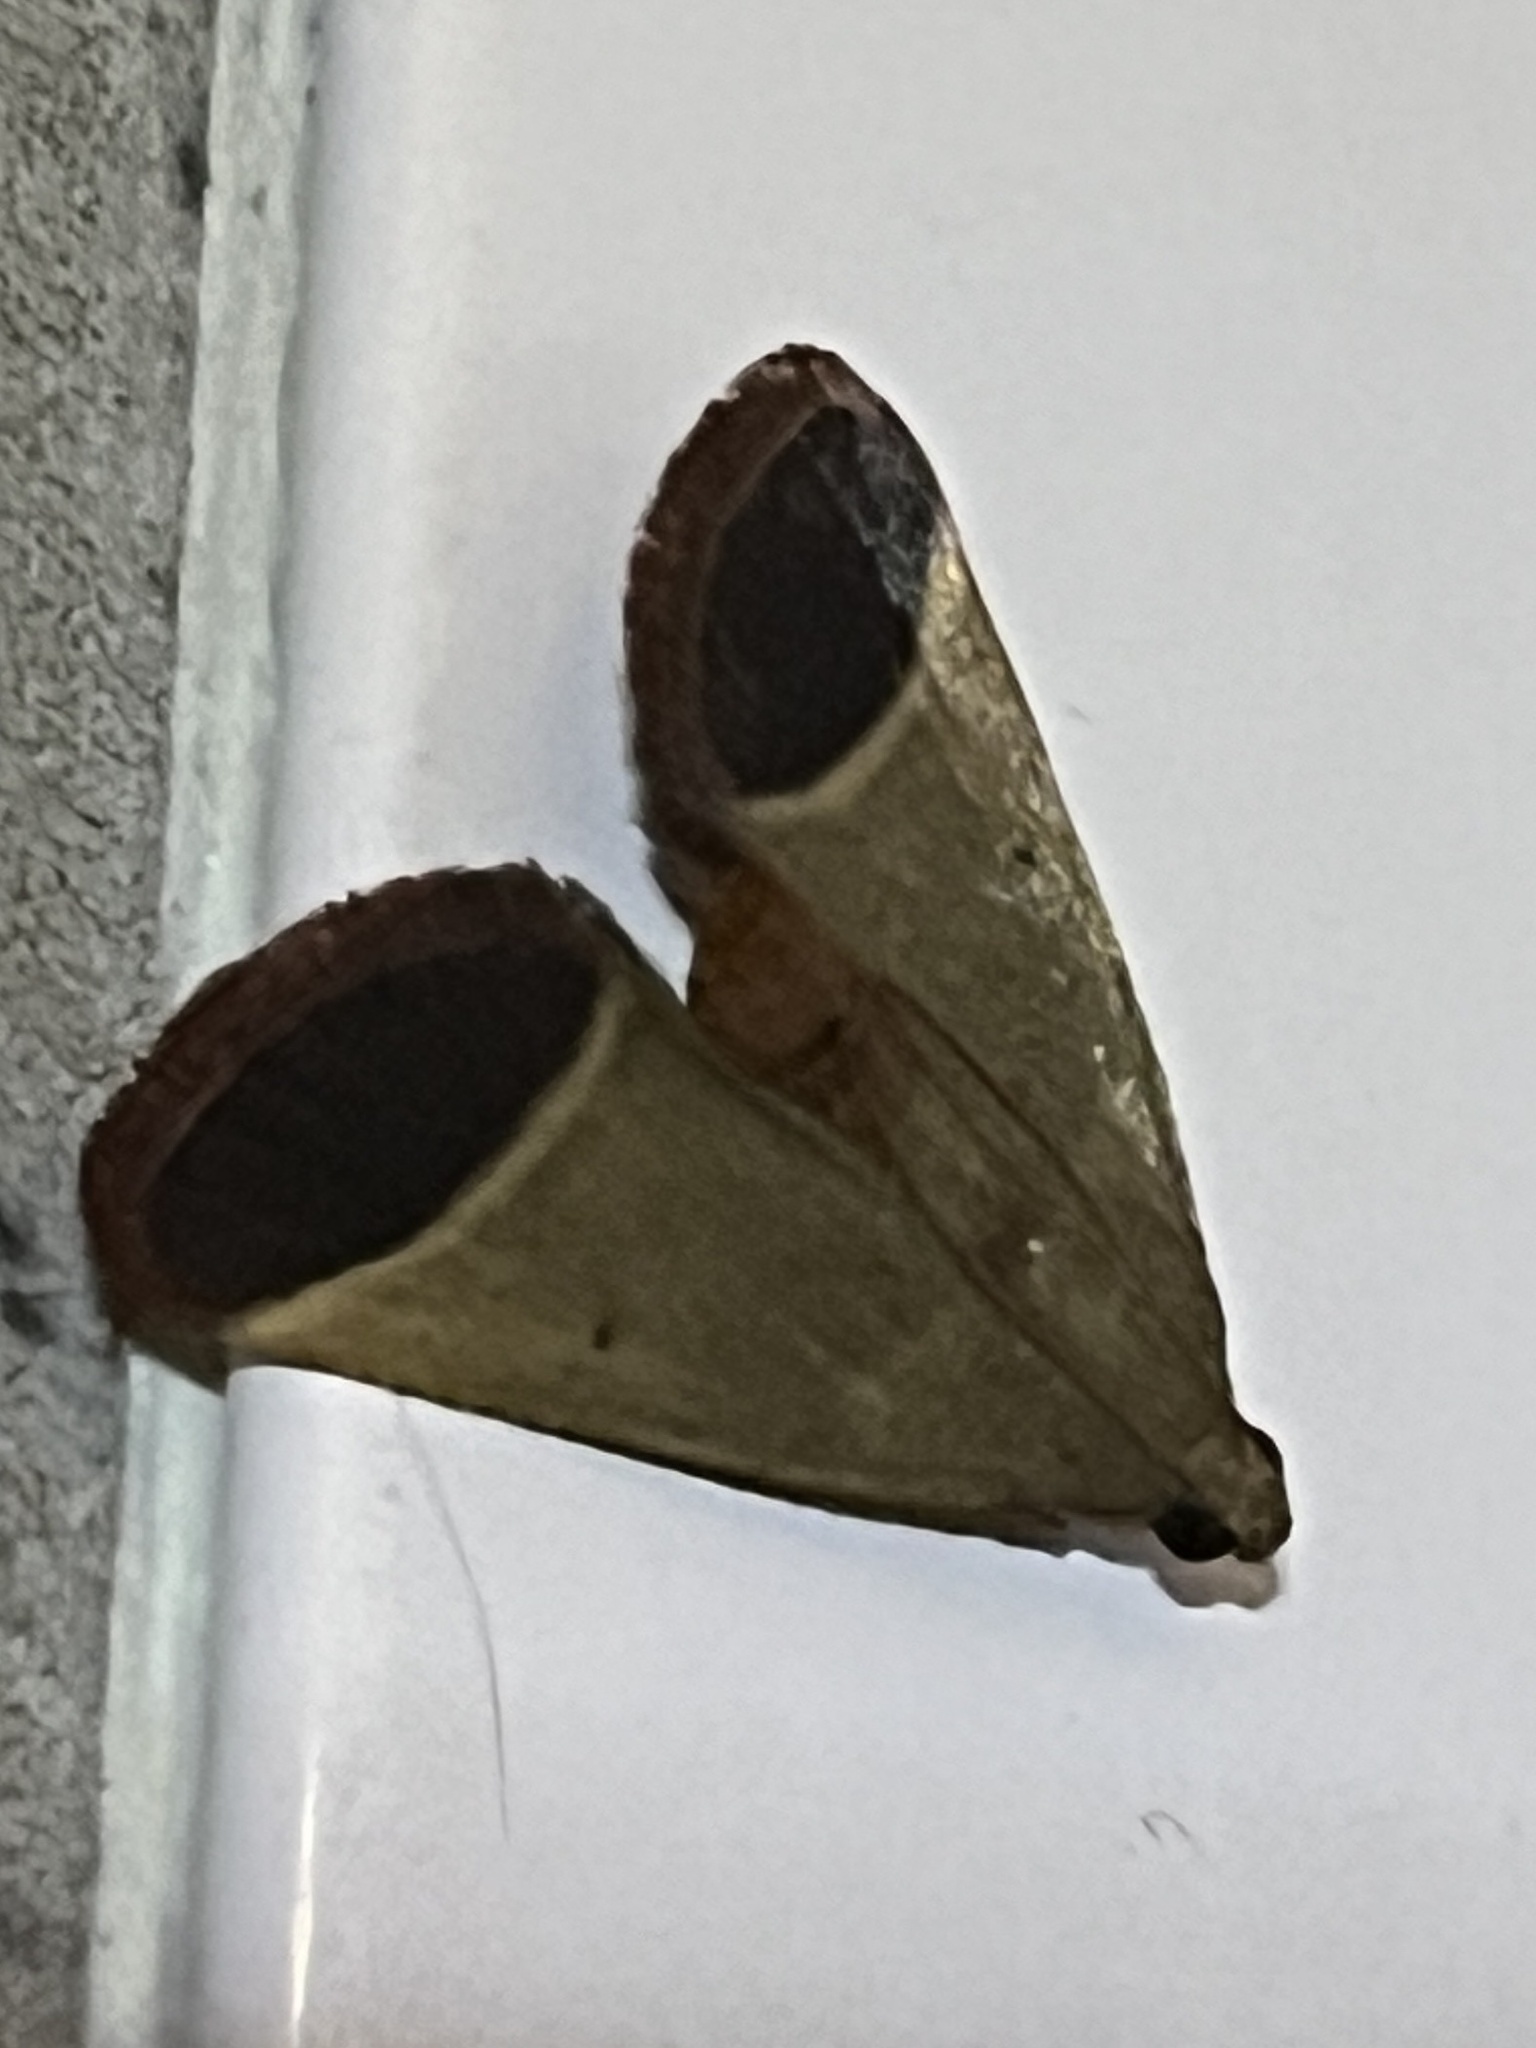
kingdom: Animalia
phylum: Arthropoda
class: Insecta
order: Lepidoptera
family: Pyralidae
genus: Tegulifera
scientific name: Tegulifera obovalis
